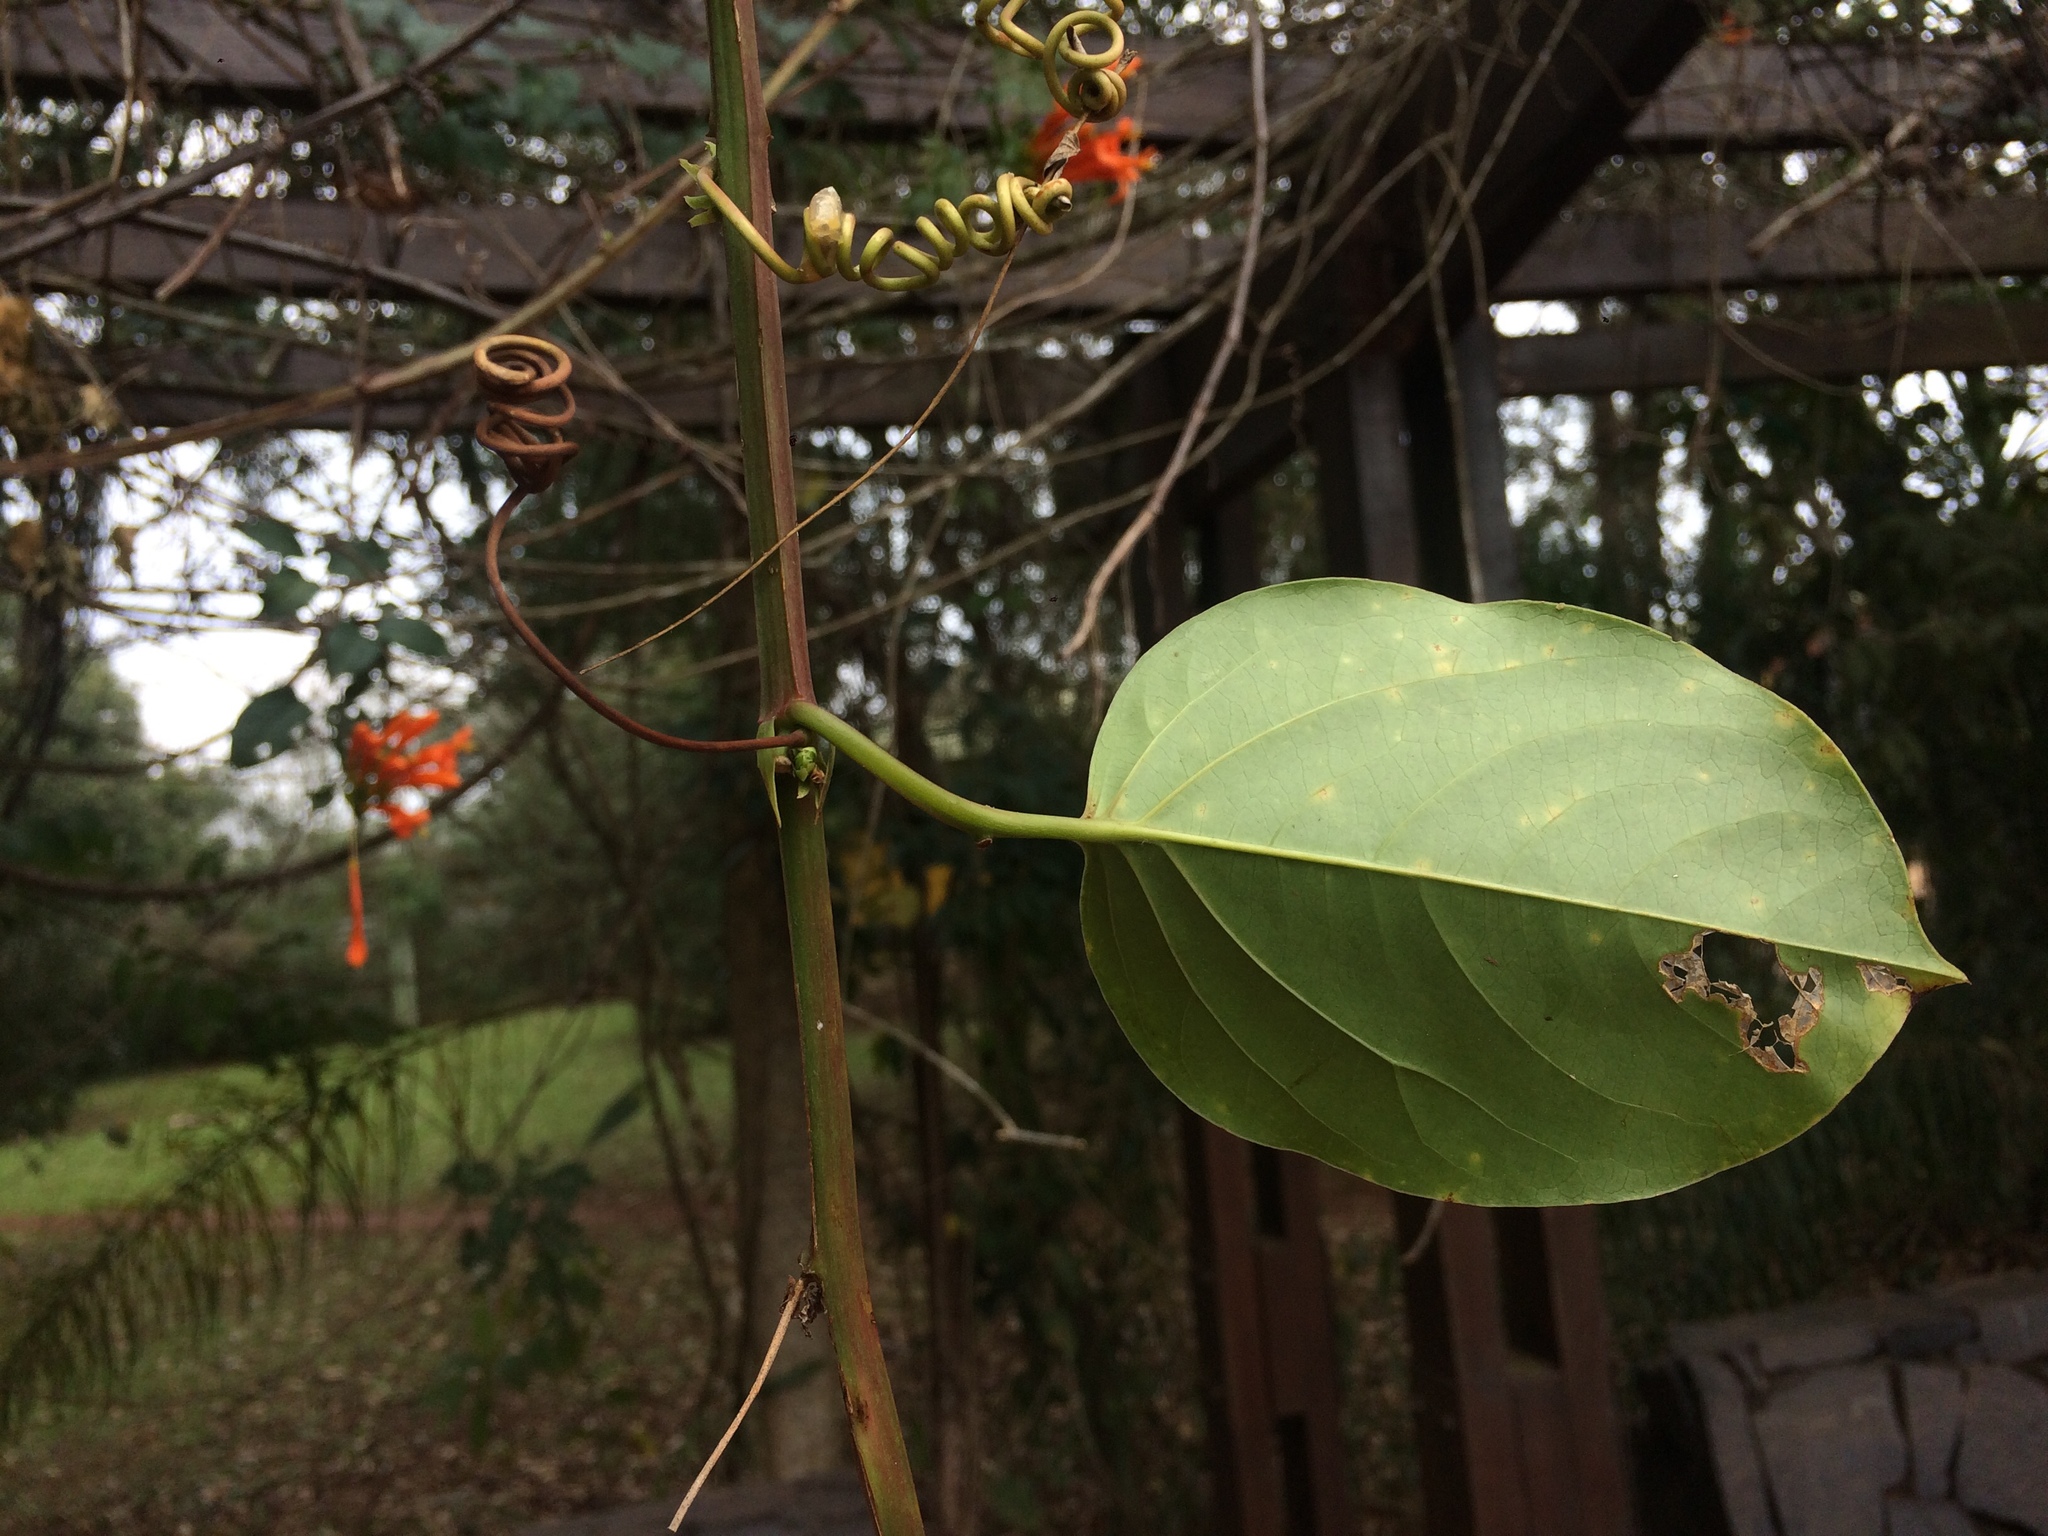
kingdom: Plantae
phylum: Tracheophyta
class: Magnoliopsida
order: Malpighiales
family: Passifloraceae
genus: Passiflora
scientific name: Passiflora alata
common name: Wing-stemmed passion flower
